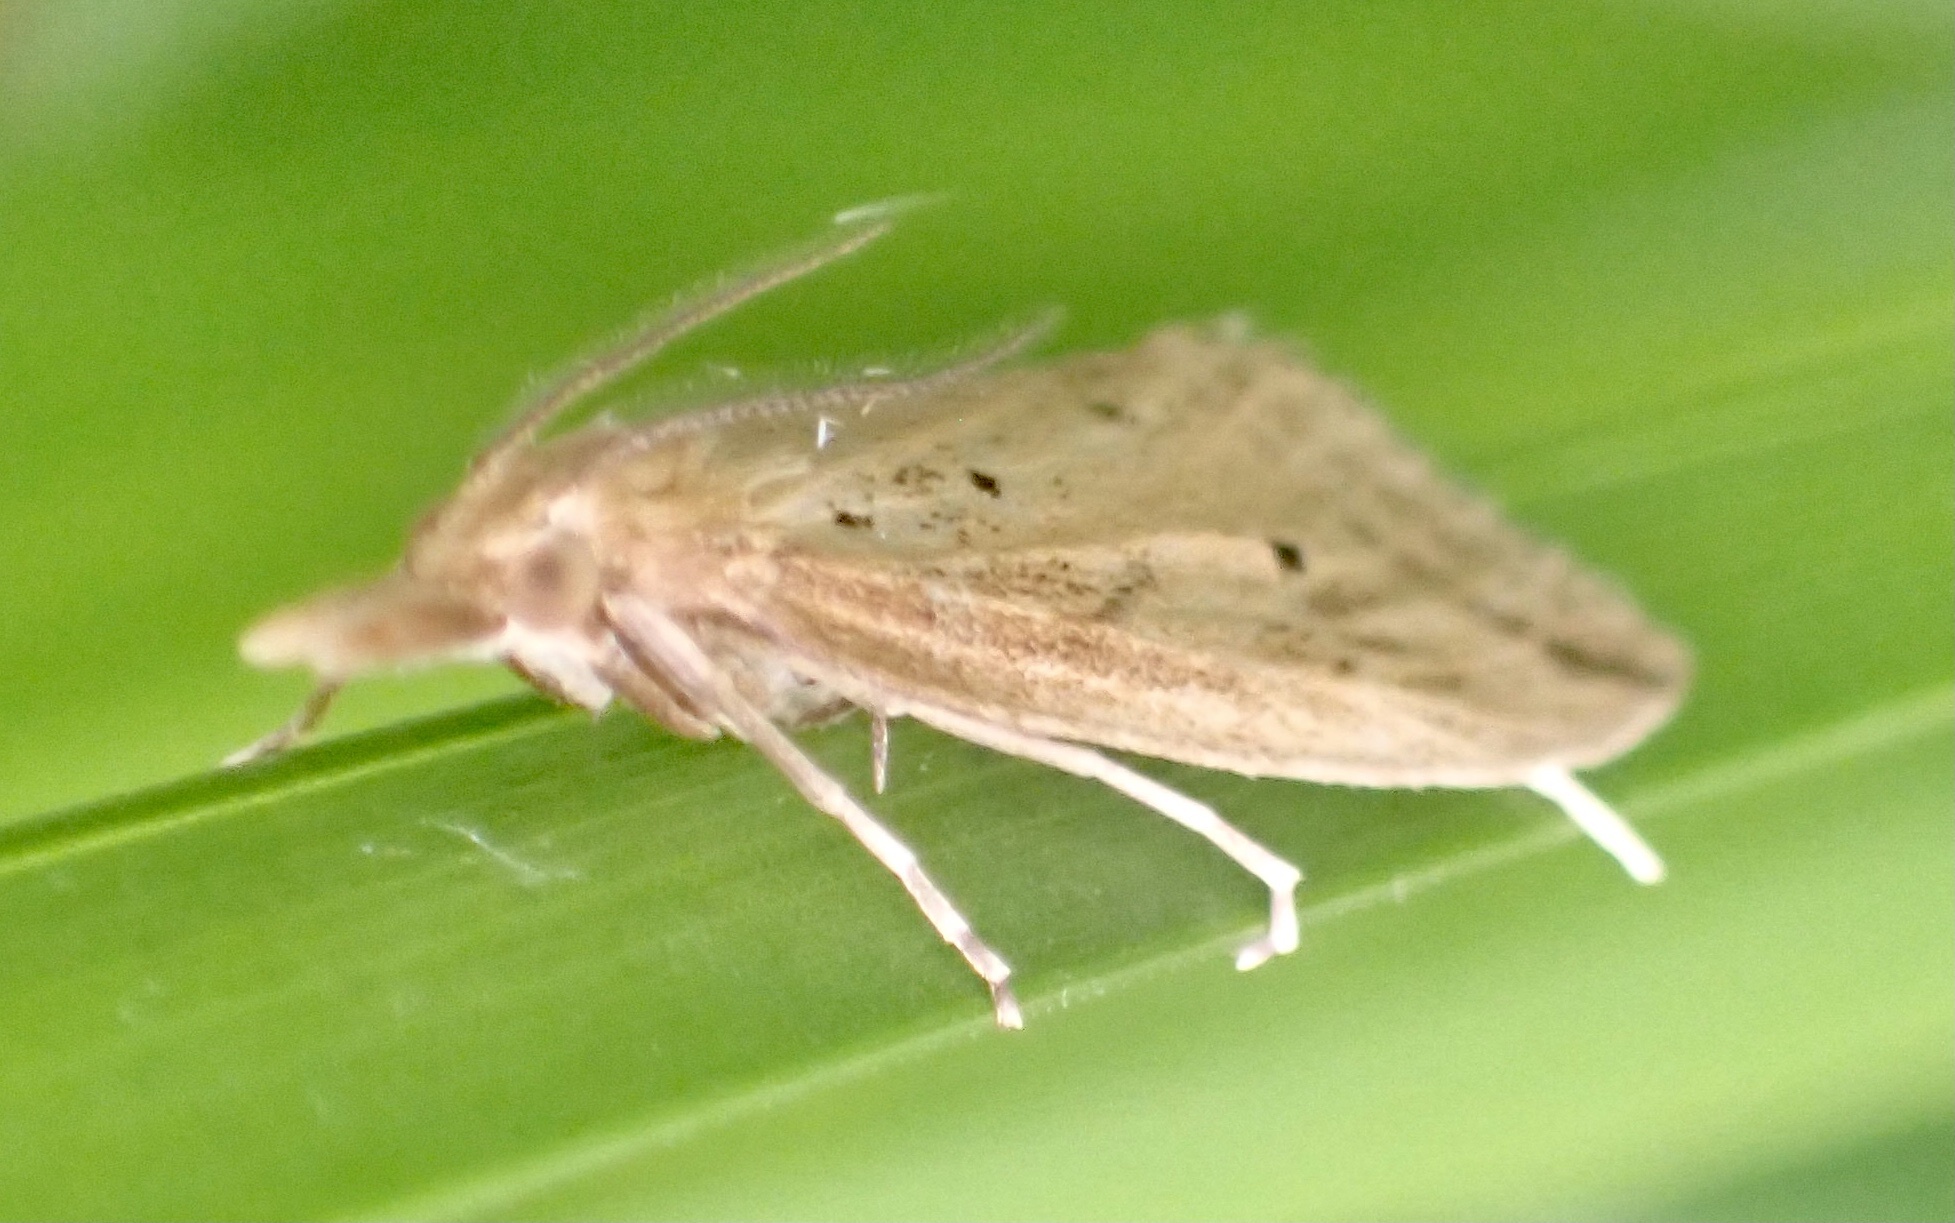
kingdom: Animalia
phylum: Arthropoda
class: Insecta
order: Lepidoptera
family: Crambidae
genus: Donacaula
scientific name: Donacaula forficella
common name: Pale water-veneer
